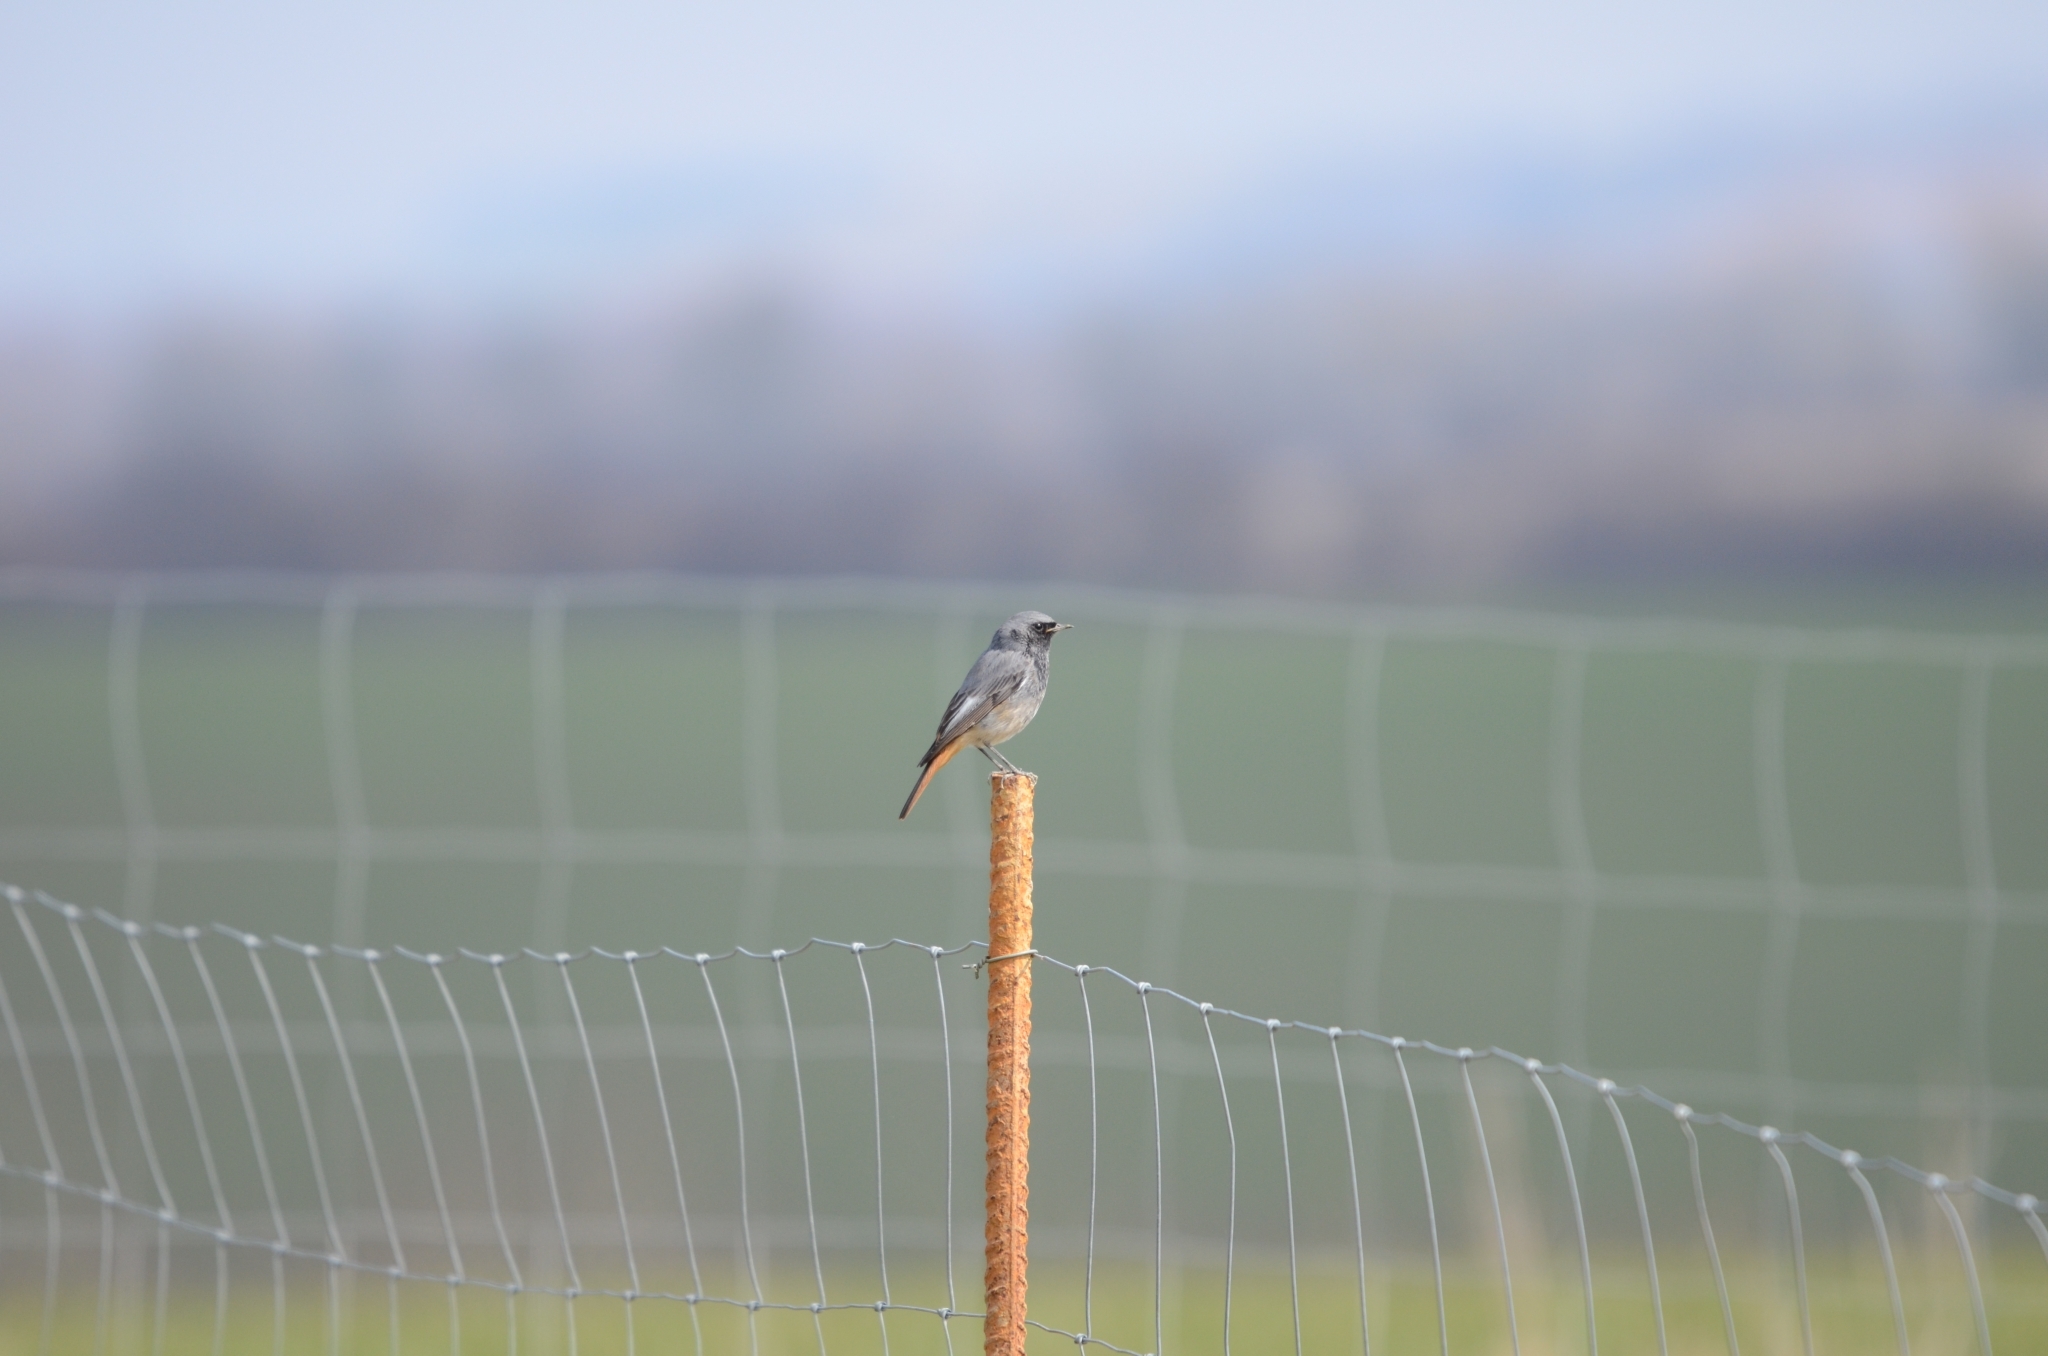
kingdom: Animalia
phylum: Chordata
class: Aves
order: Passeriformes
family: Muscicapidae
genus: Phoenicurus
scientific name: Phoenicurus ochruros
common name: Black redstart
